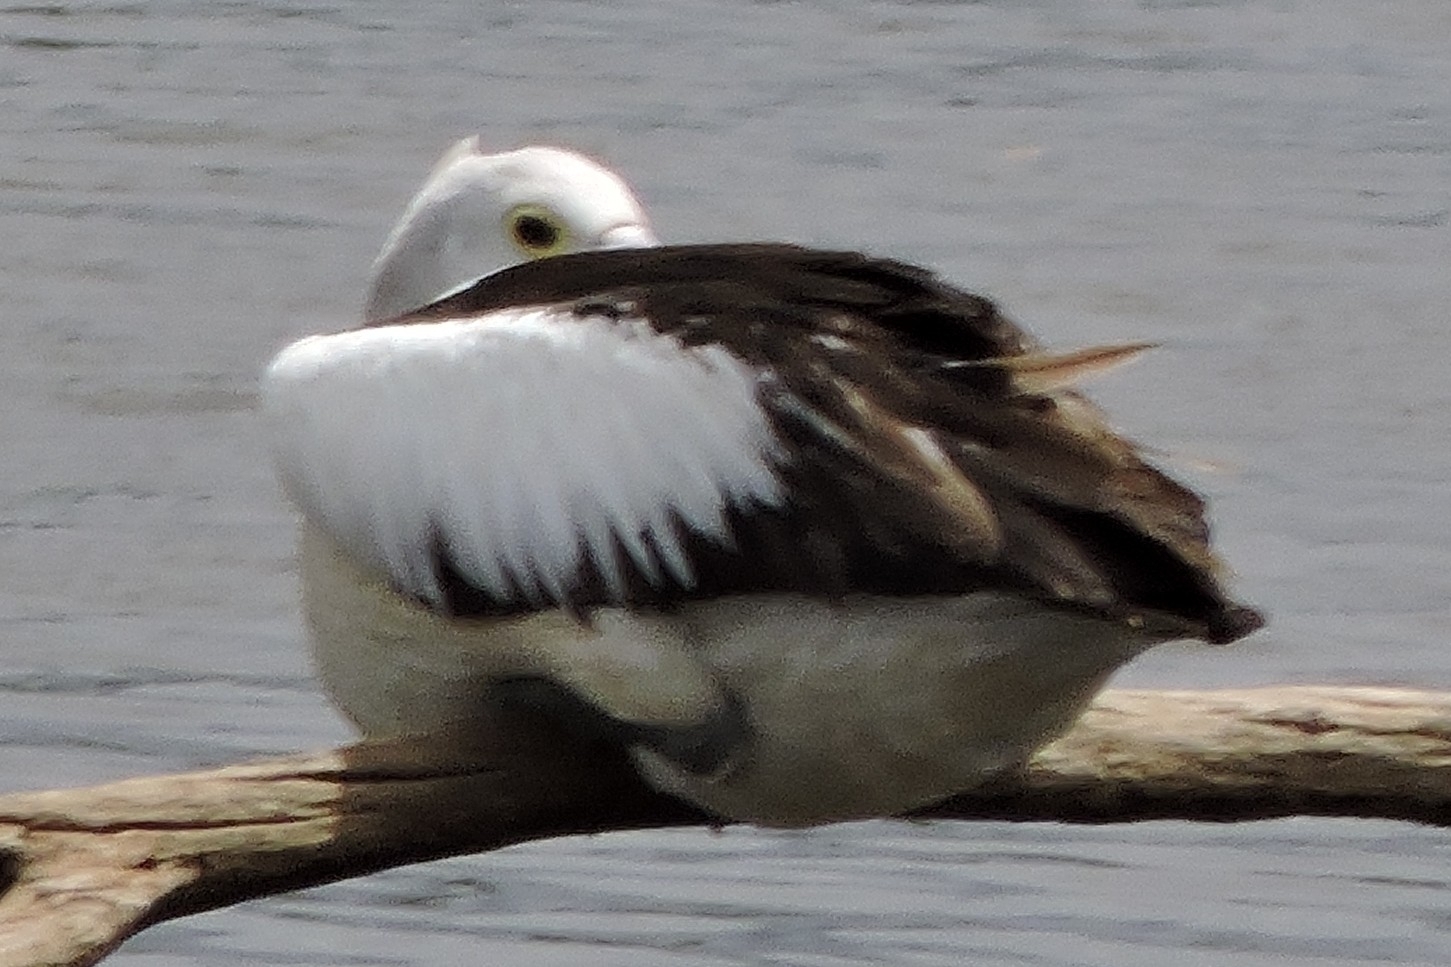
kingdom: Animalia
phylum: Chordata
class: Aves
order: Pelecaniformes
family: Pelecanidae
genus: Pelecanus
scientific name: Pelecanus conspicillatus
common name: Australian pelican
